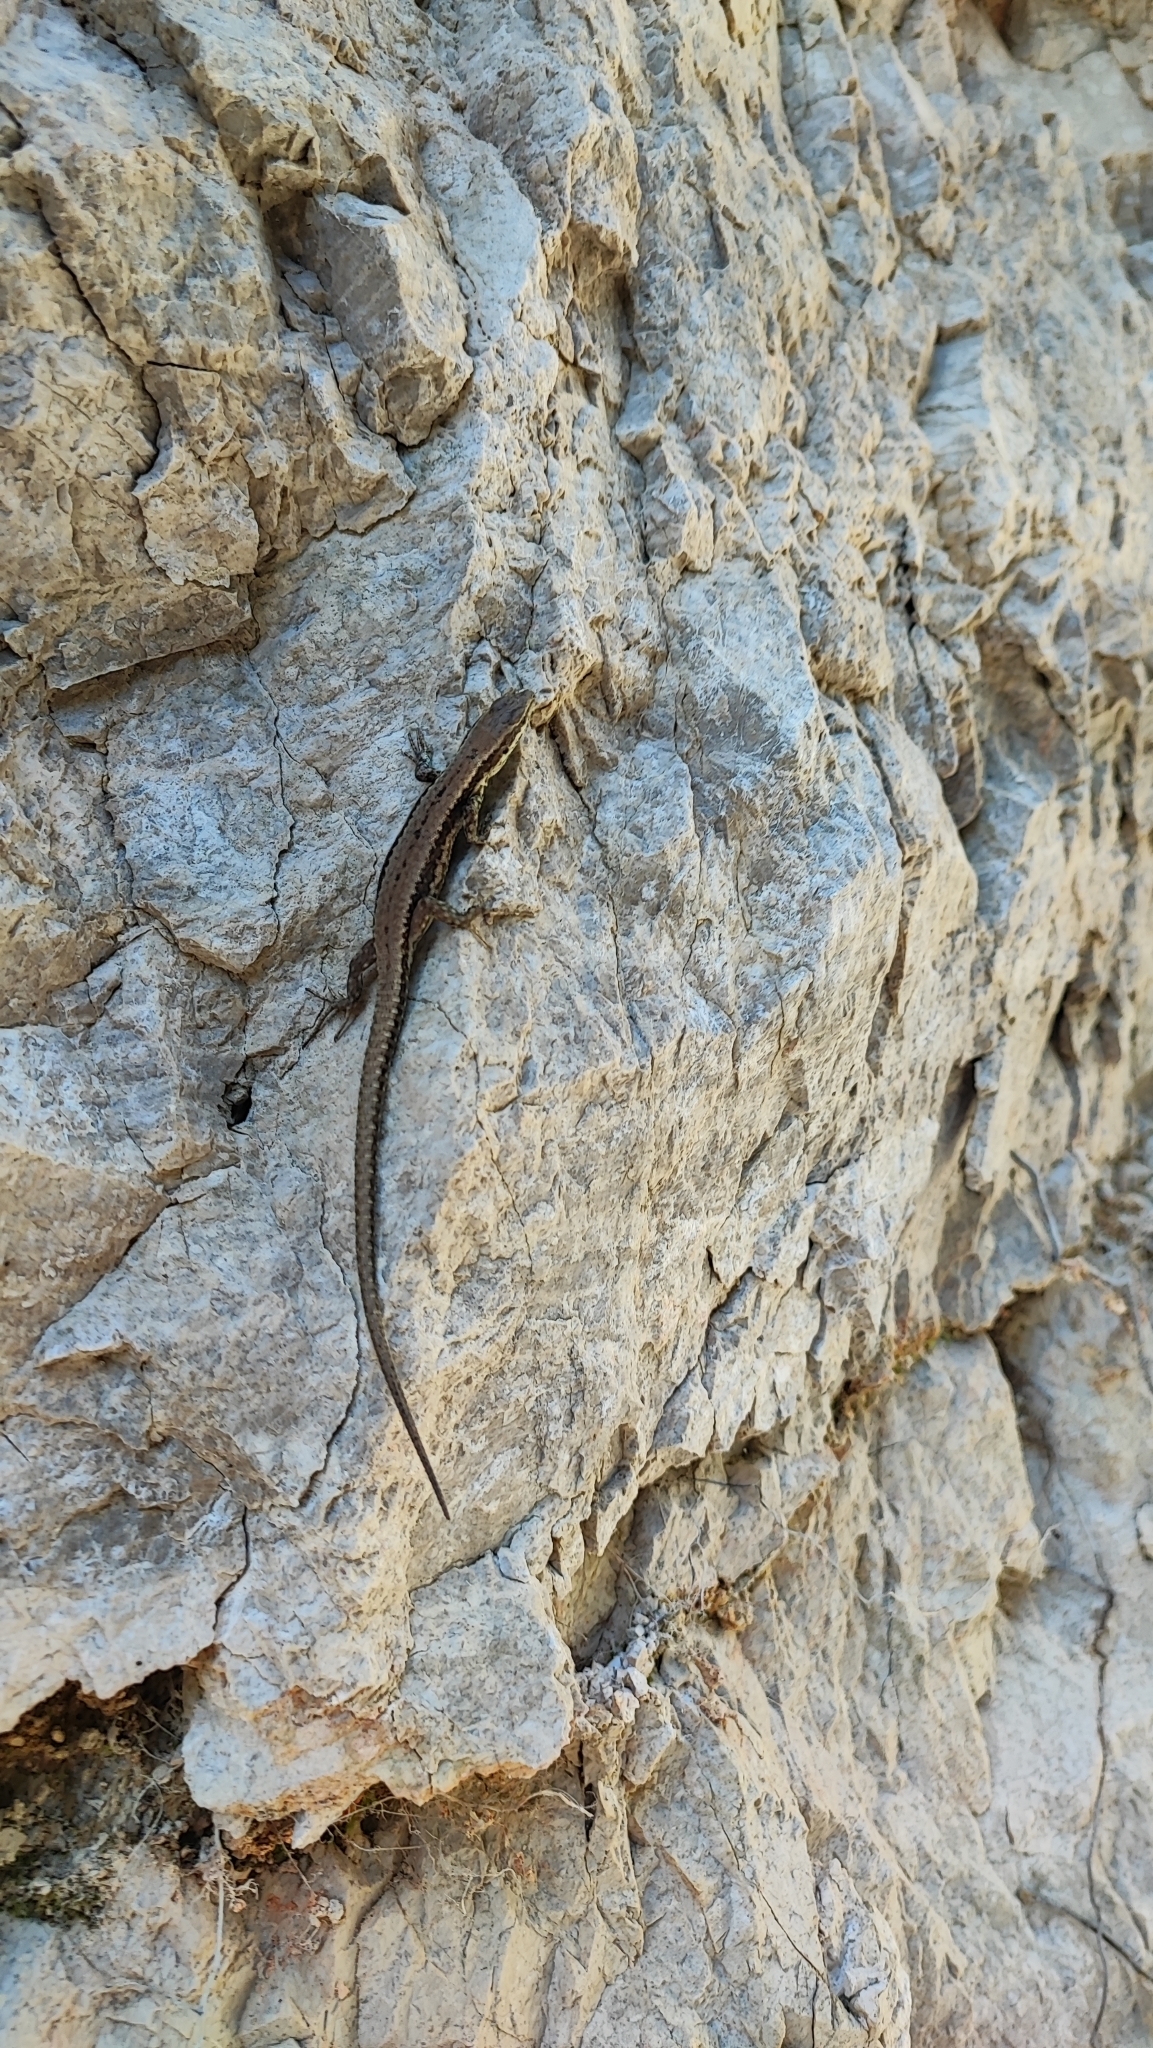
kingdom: Animalia
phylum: Chordata
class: Squamata
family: Lacertidae
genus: Podarcis
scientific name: Podarcis muralis
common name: Common wall lizard
